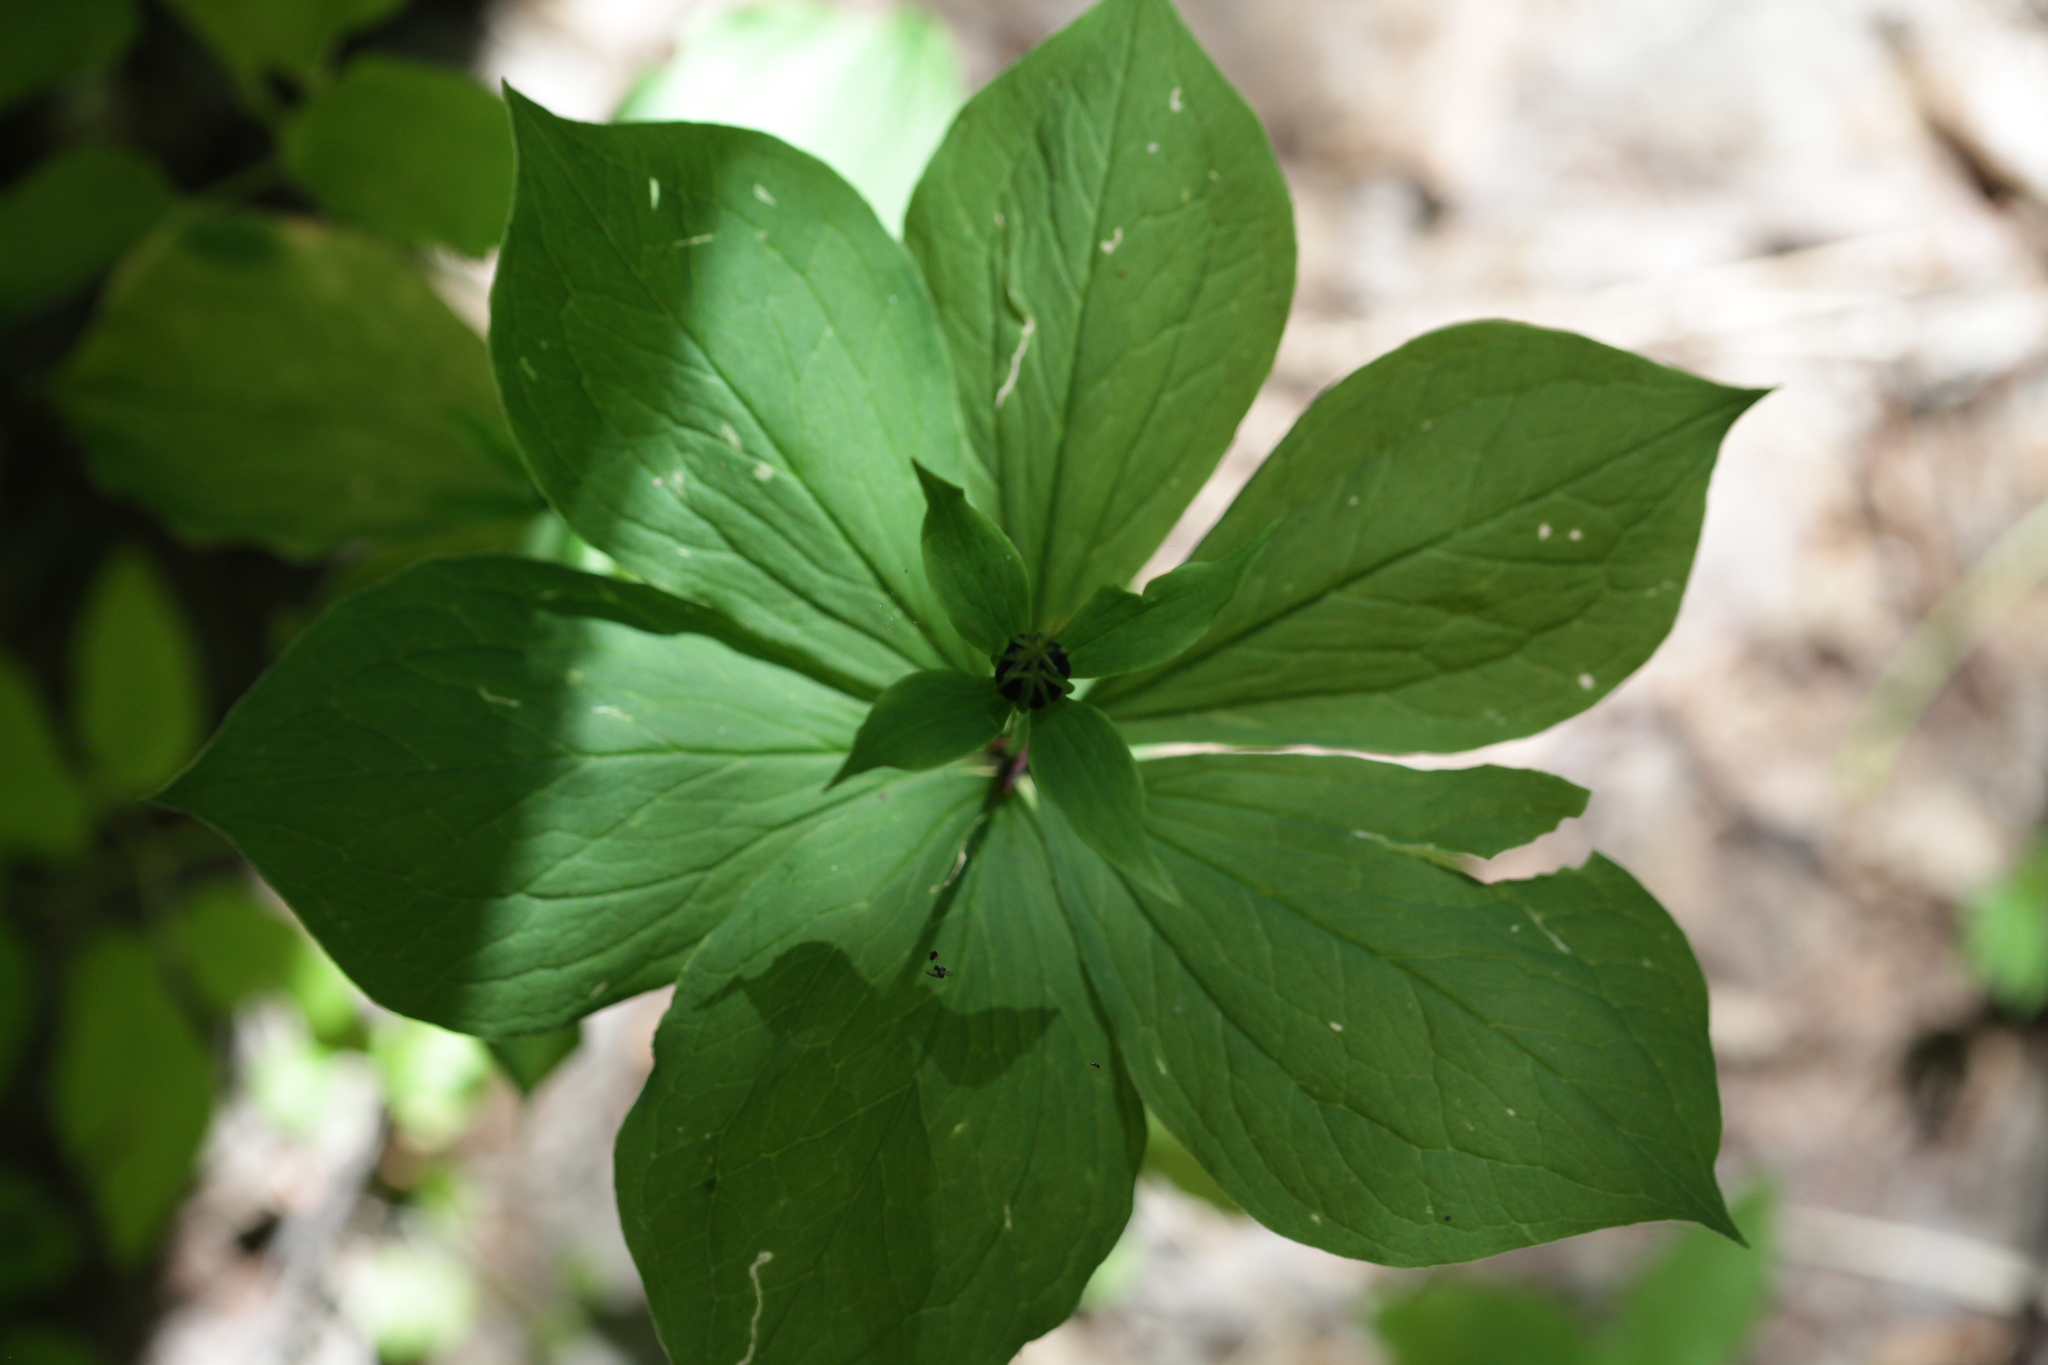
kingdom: Plantae
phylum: Tracheophyta
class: Liliopsida
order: Liliales
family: Melanthiaceae
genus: Paris
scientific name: Paris verticillata
